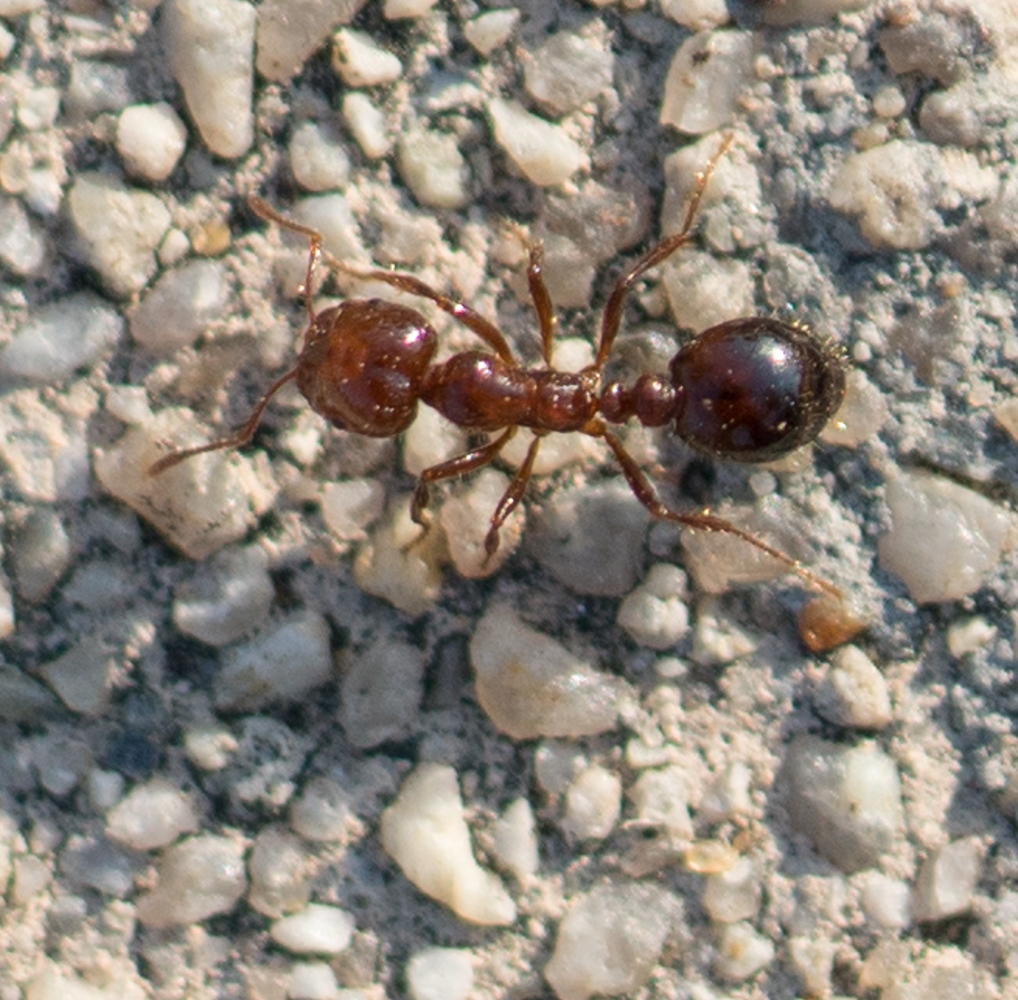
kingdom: Animalia
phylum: Arthropoda
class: Insecta
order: Hymenoptera
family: Formicidae
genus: Solenopsis
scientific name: Solenopsis invicta
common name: Red imported fire ant
